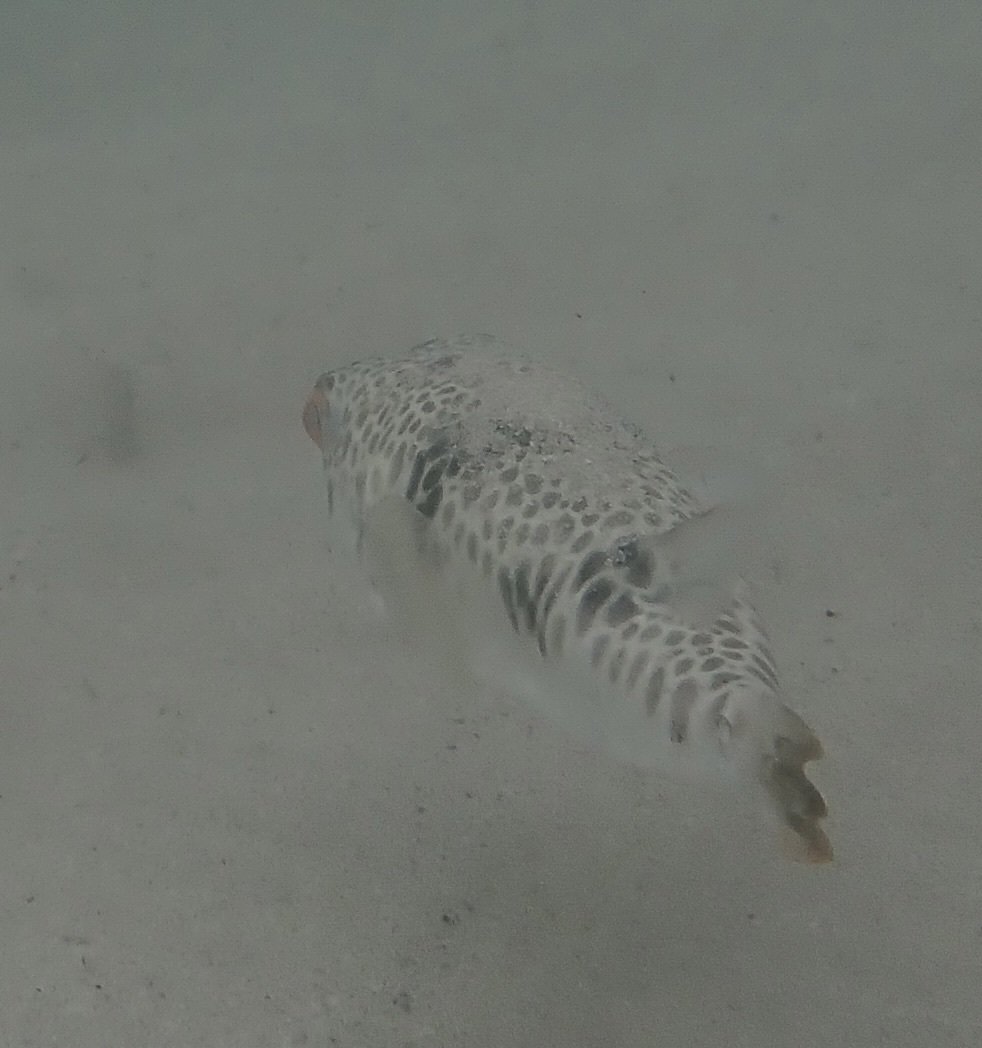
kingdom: Animalia
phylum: Chordata
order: Tetraodontiformes
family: Tetraodontidae
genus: Tetractenos
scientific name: Tetractenos glaber
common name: Smooth toadfish
